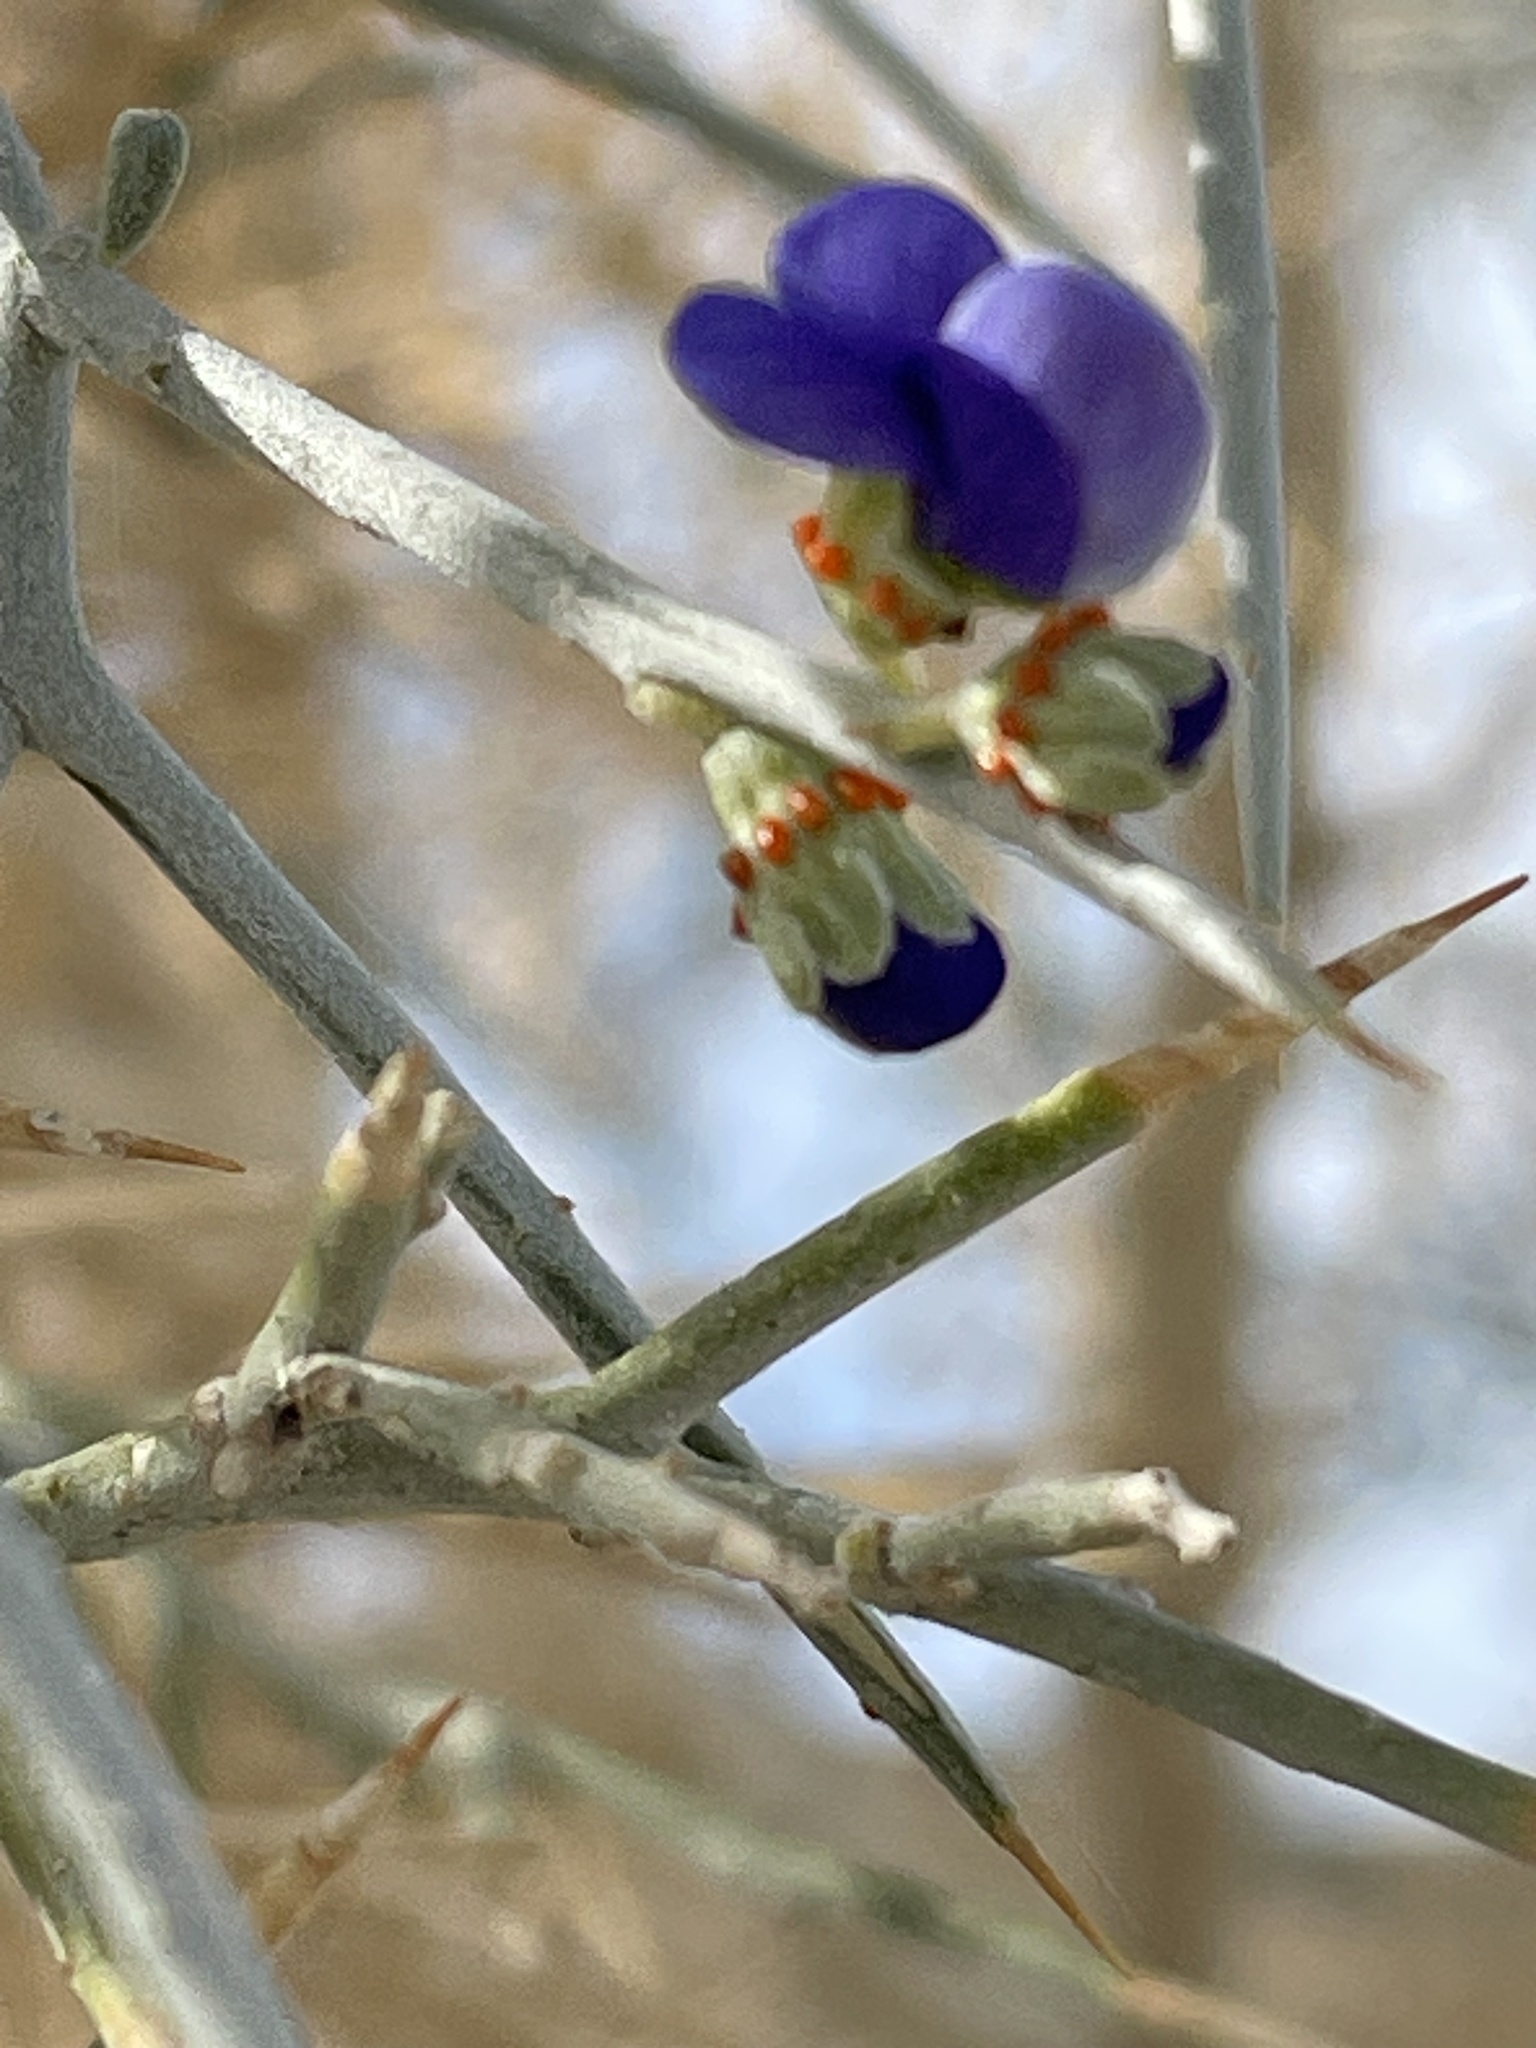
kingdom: Plantae
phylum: Tracheophyta
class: Magnoliopsida
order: Fabales
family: Fabaceae
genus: Psorothamnus
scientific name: Psorothamnus spinosus
